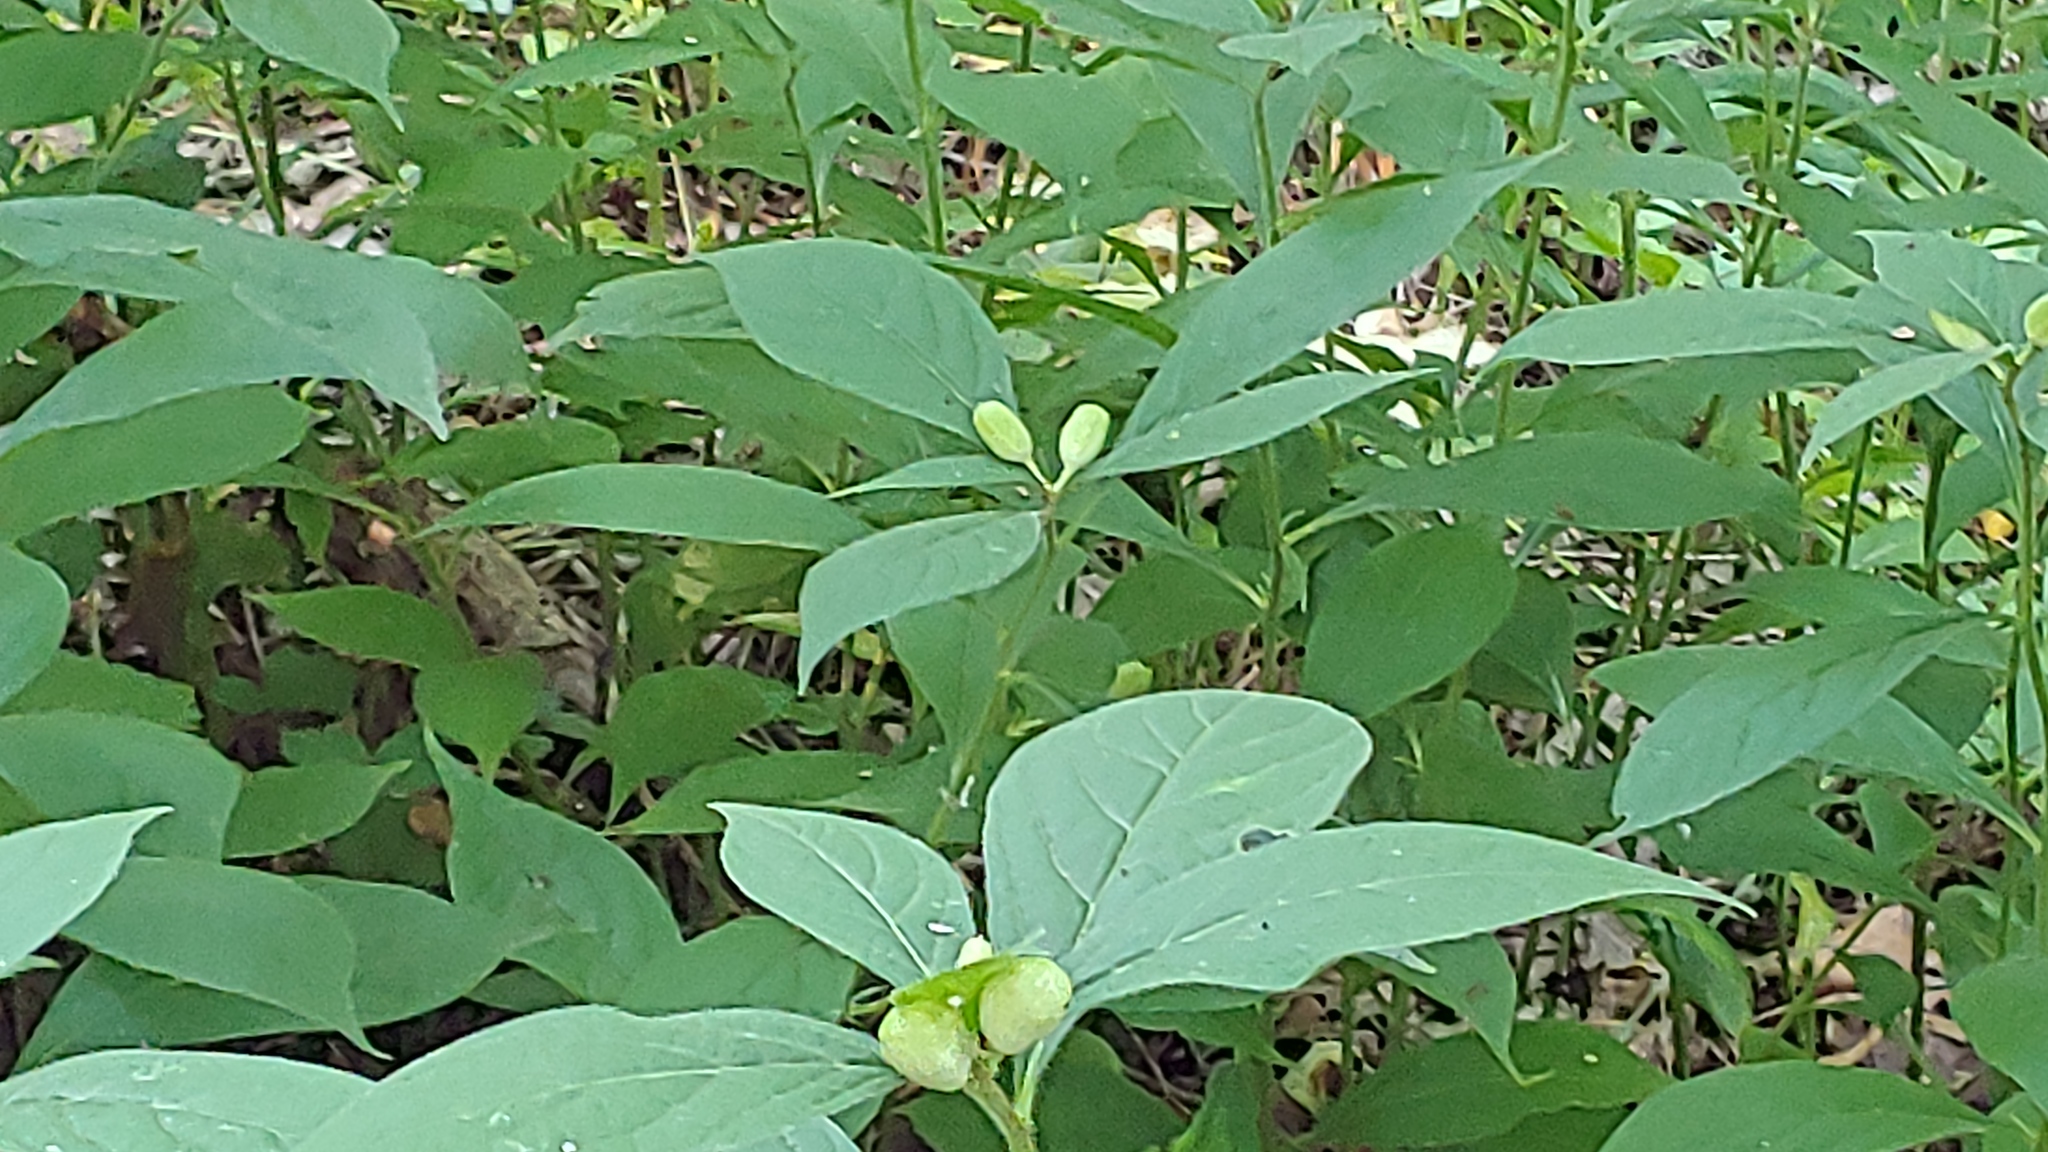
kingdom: Plantae
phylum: Tracheophyta
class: Magnoliopsida
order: Malpighiales
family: Violaceae
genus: Cubelium
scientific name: Cubelium concolor
